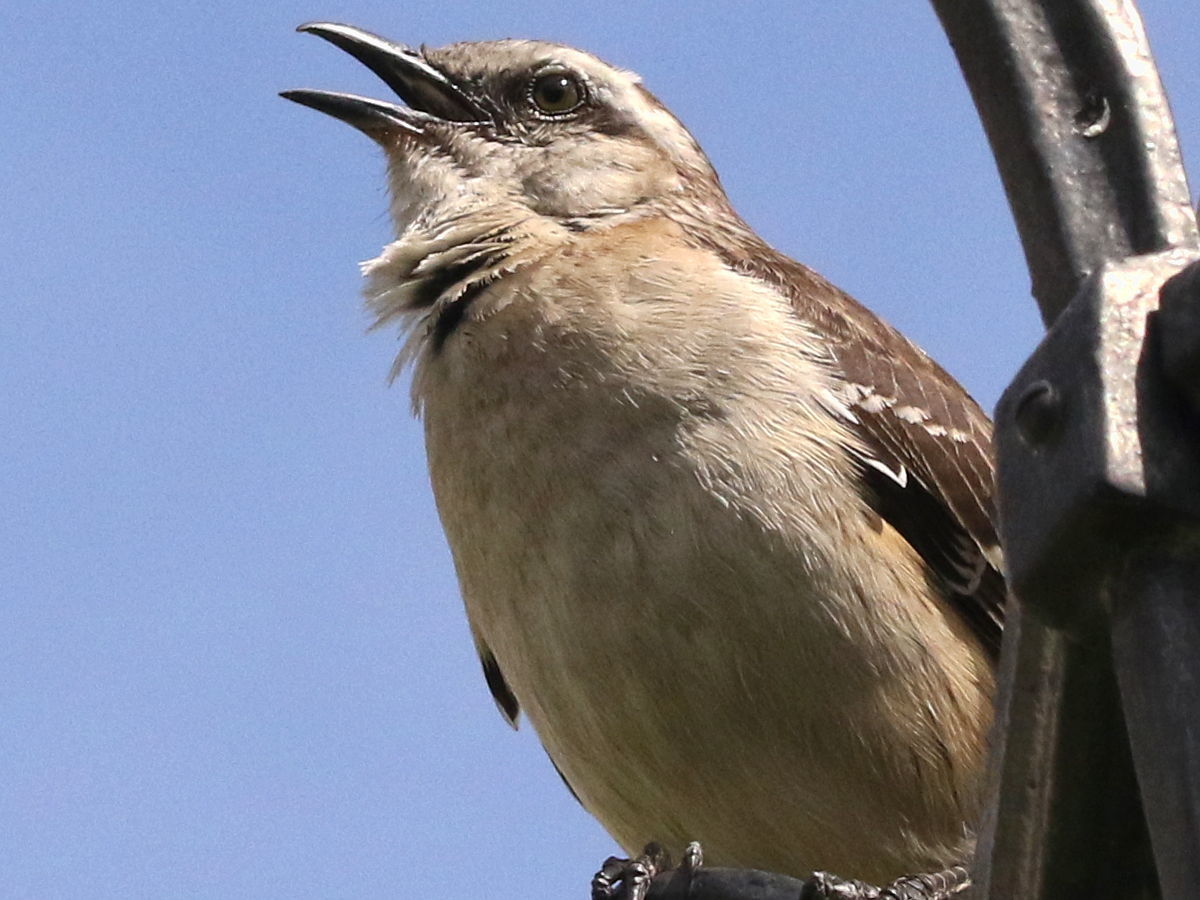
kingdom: Animalia
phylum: Chordata
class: Aves
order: Passeriformes
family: Mimidae
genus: Mimus
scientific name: Mimus saturninus
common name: Chalk-browed mockingbird
